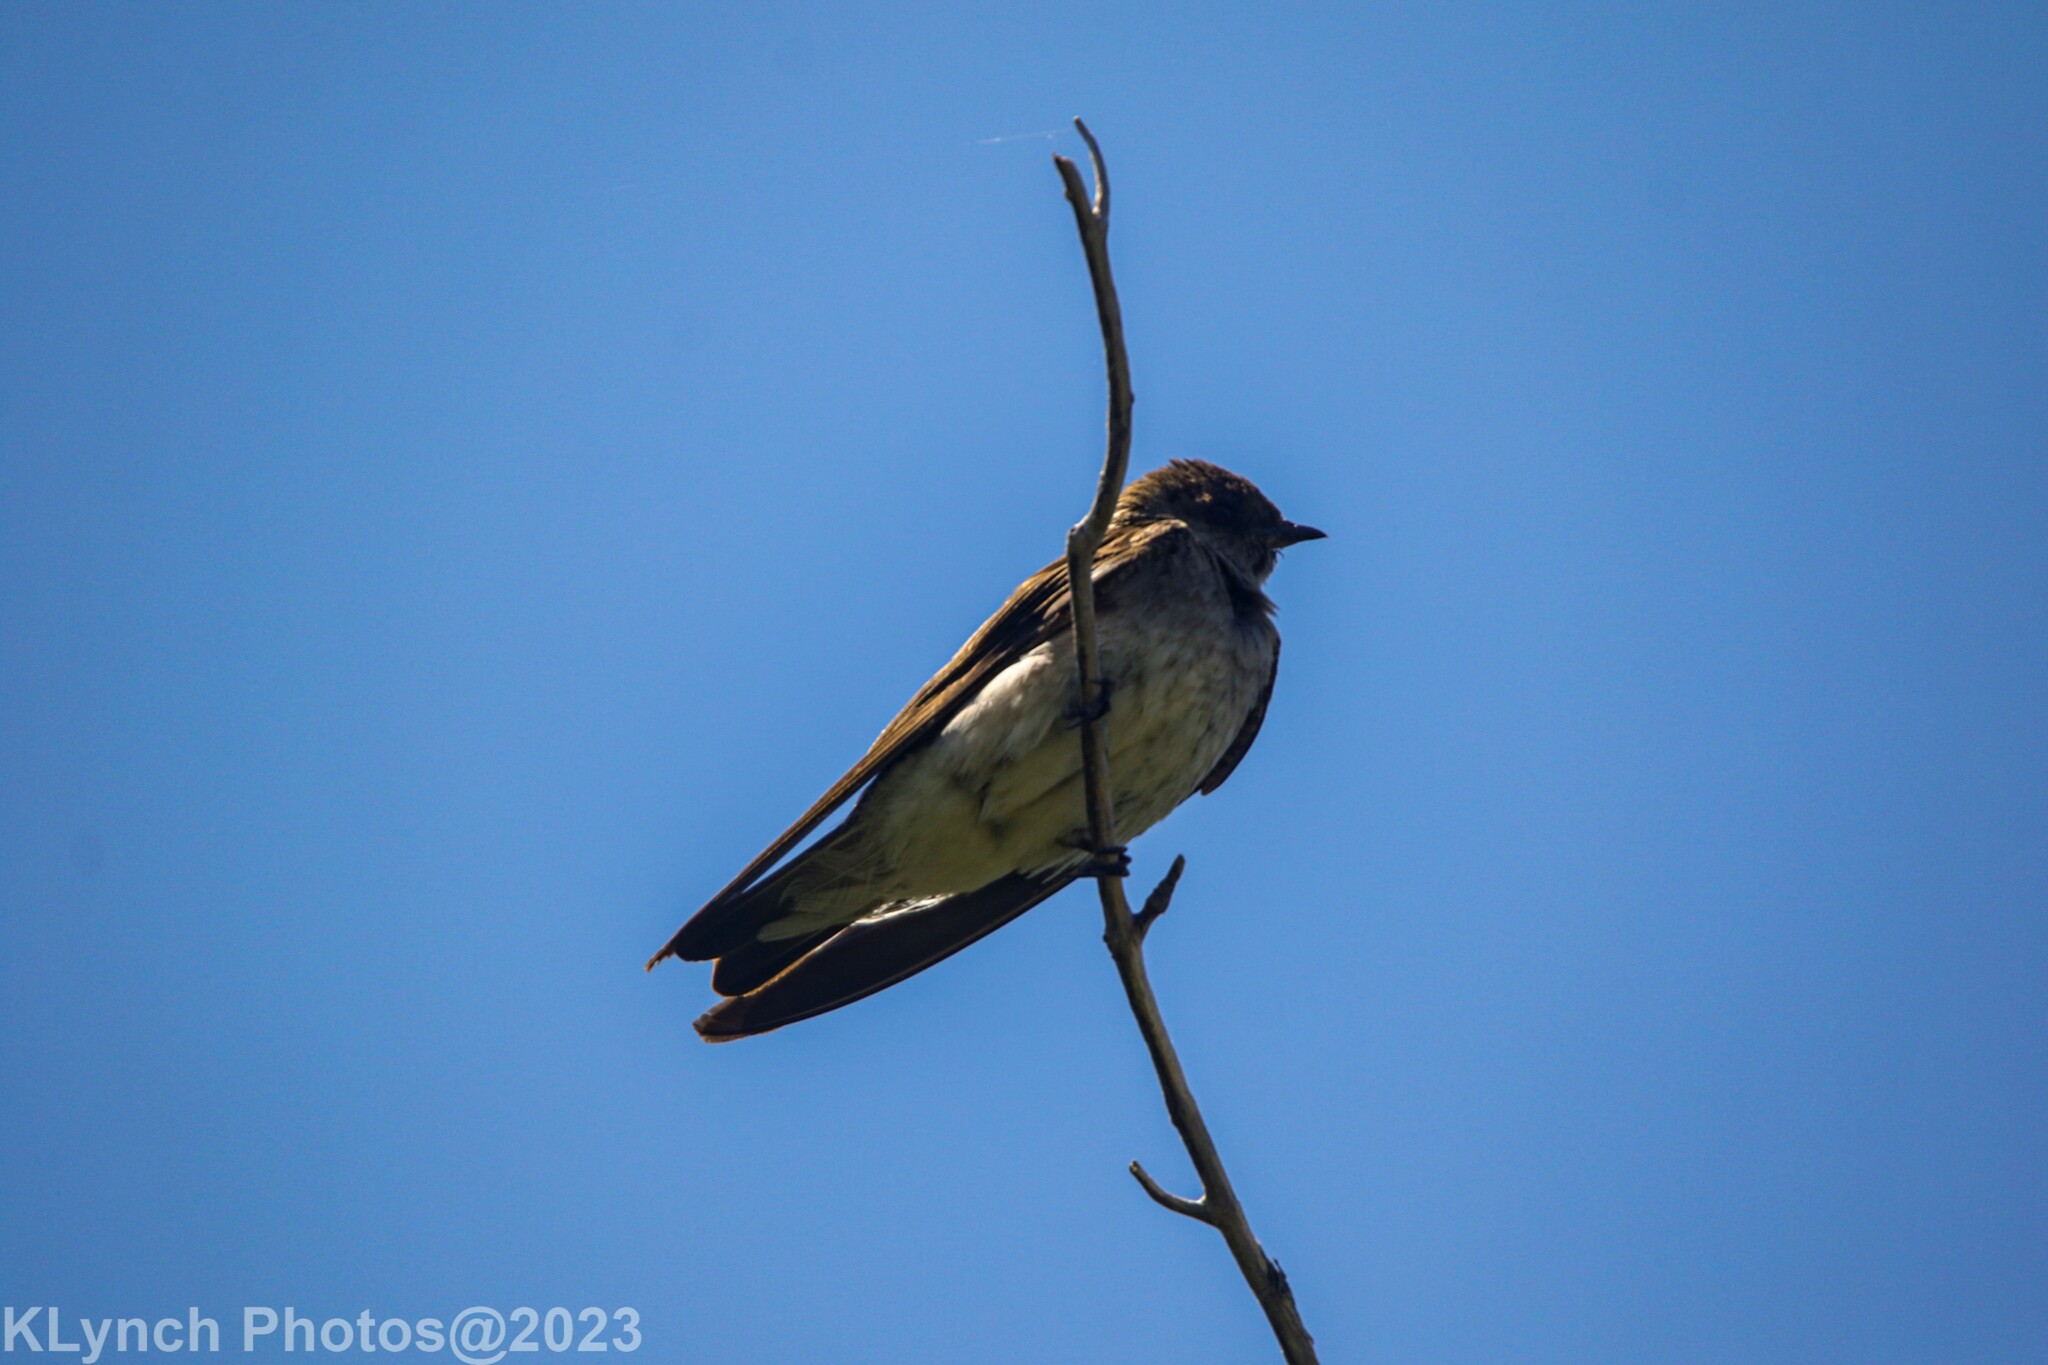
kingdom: Animalia
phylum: Chordata
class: Aves
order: Passeriformes
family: Hirundinidae
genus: Stelgidopteryx
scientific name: Stelgidopteryx serripennis
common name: Northern rough-winged swallow
